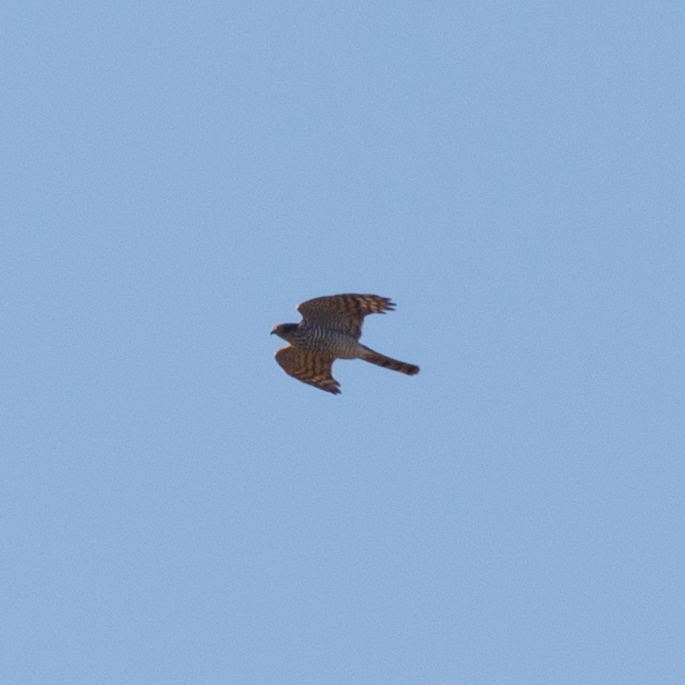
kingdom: Animalia
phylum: Chordata
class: Aves
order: Accipitriformes
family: Accipitridae
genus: Accipiter
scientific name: Accipiter nisus
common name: Eurasian sparrowhawk
